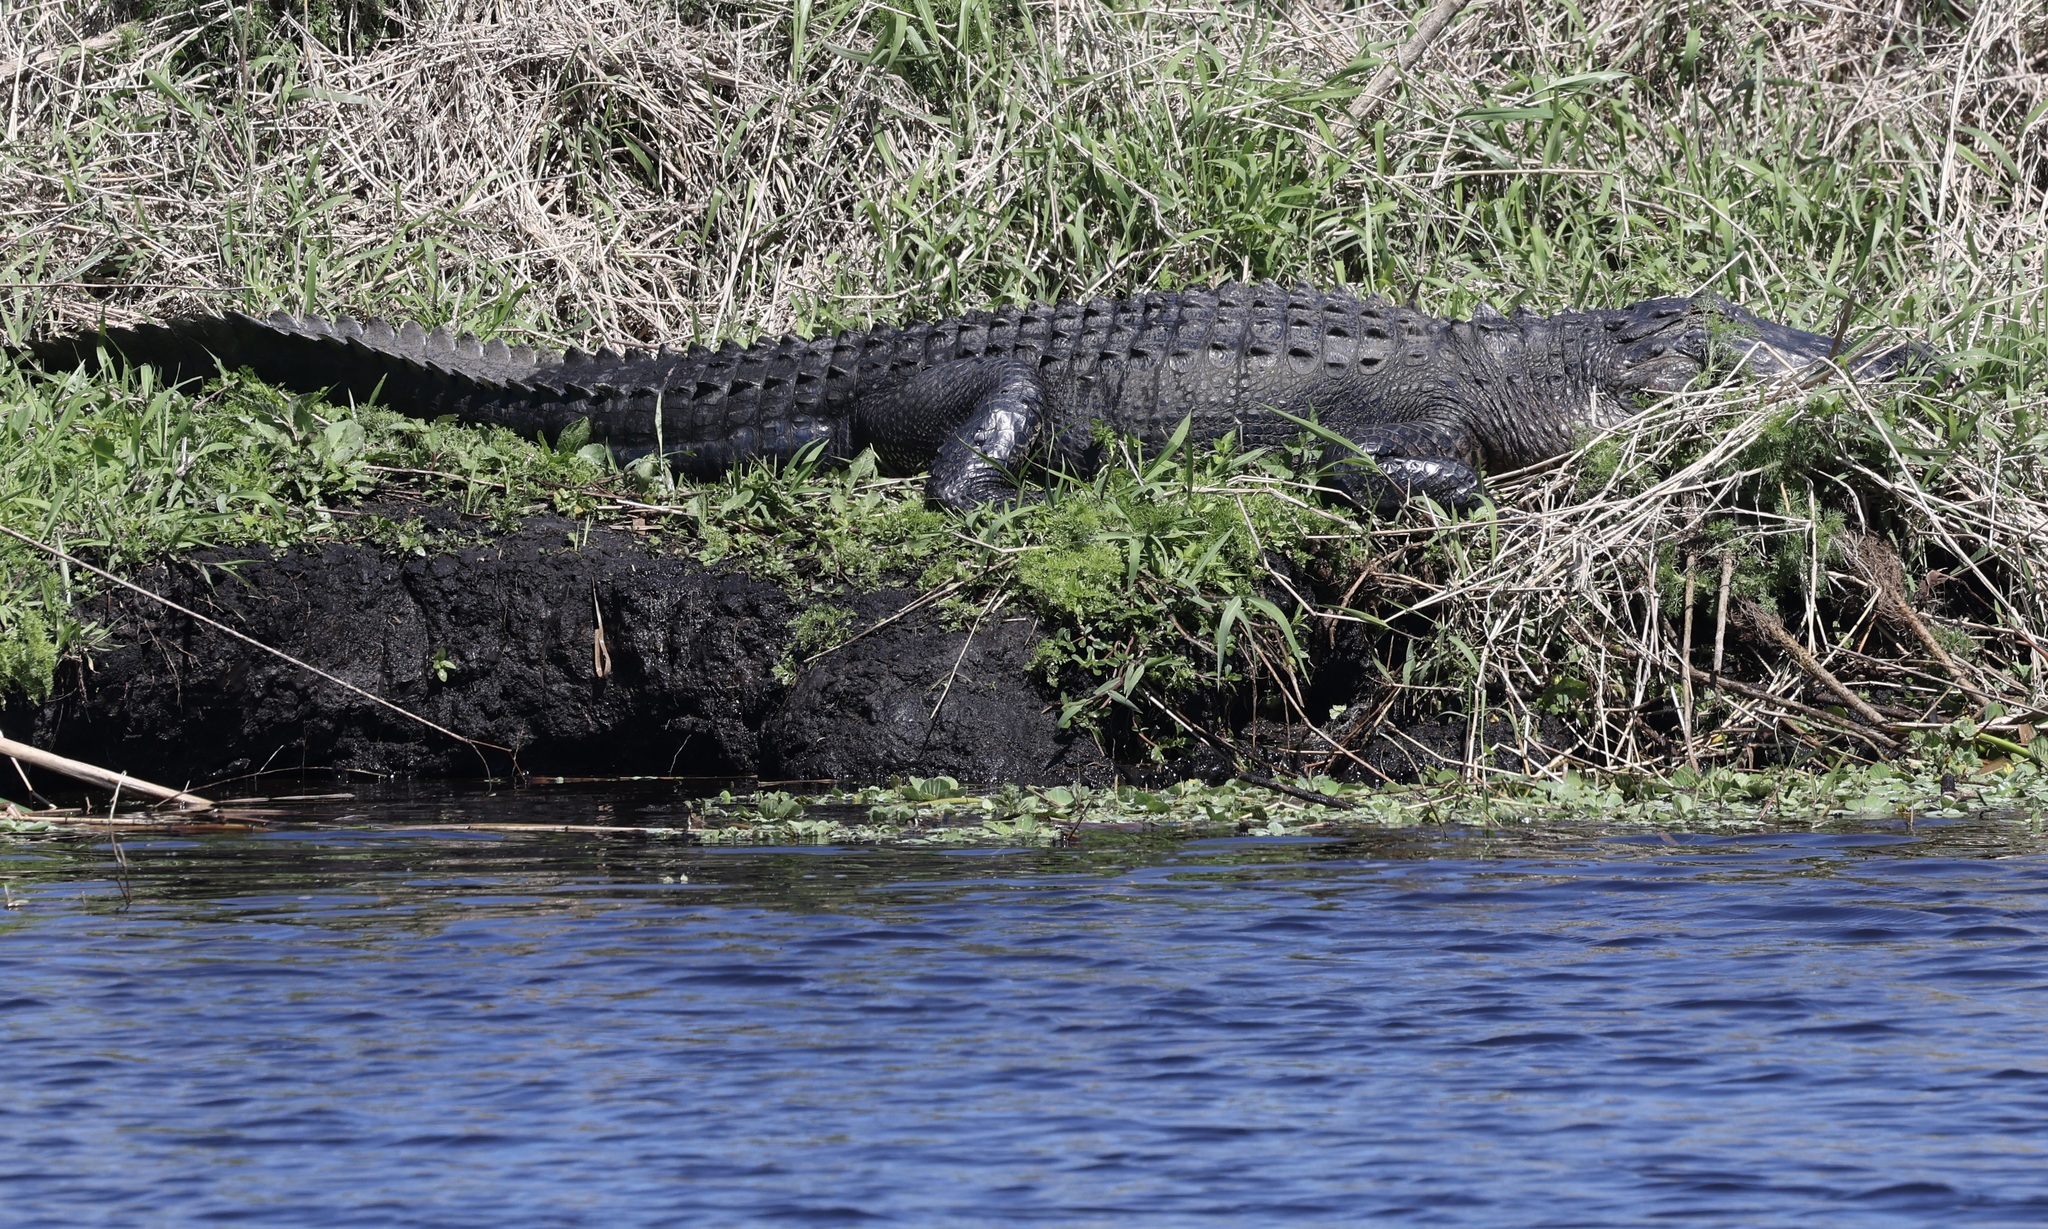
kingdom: Animalia
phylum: Chordata
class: Crocodylia
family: Alligatoridae
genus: Alligator
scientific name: Alligator mississippiensis
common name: American alligator
